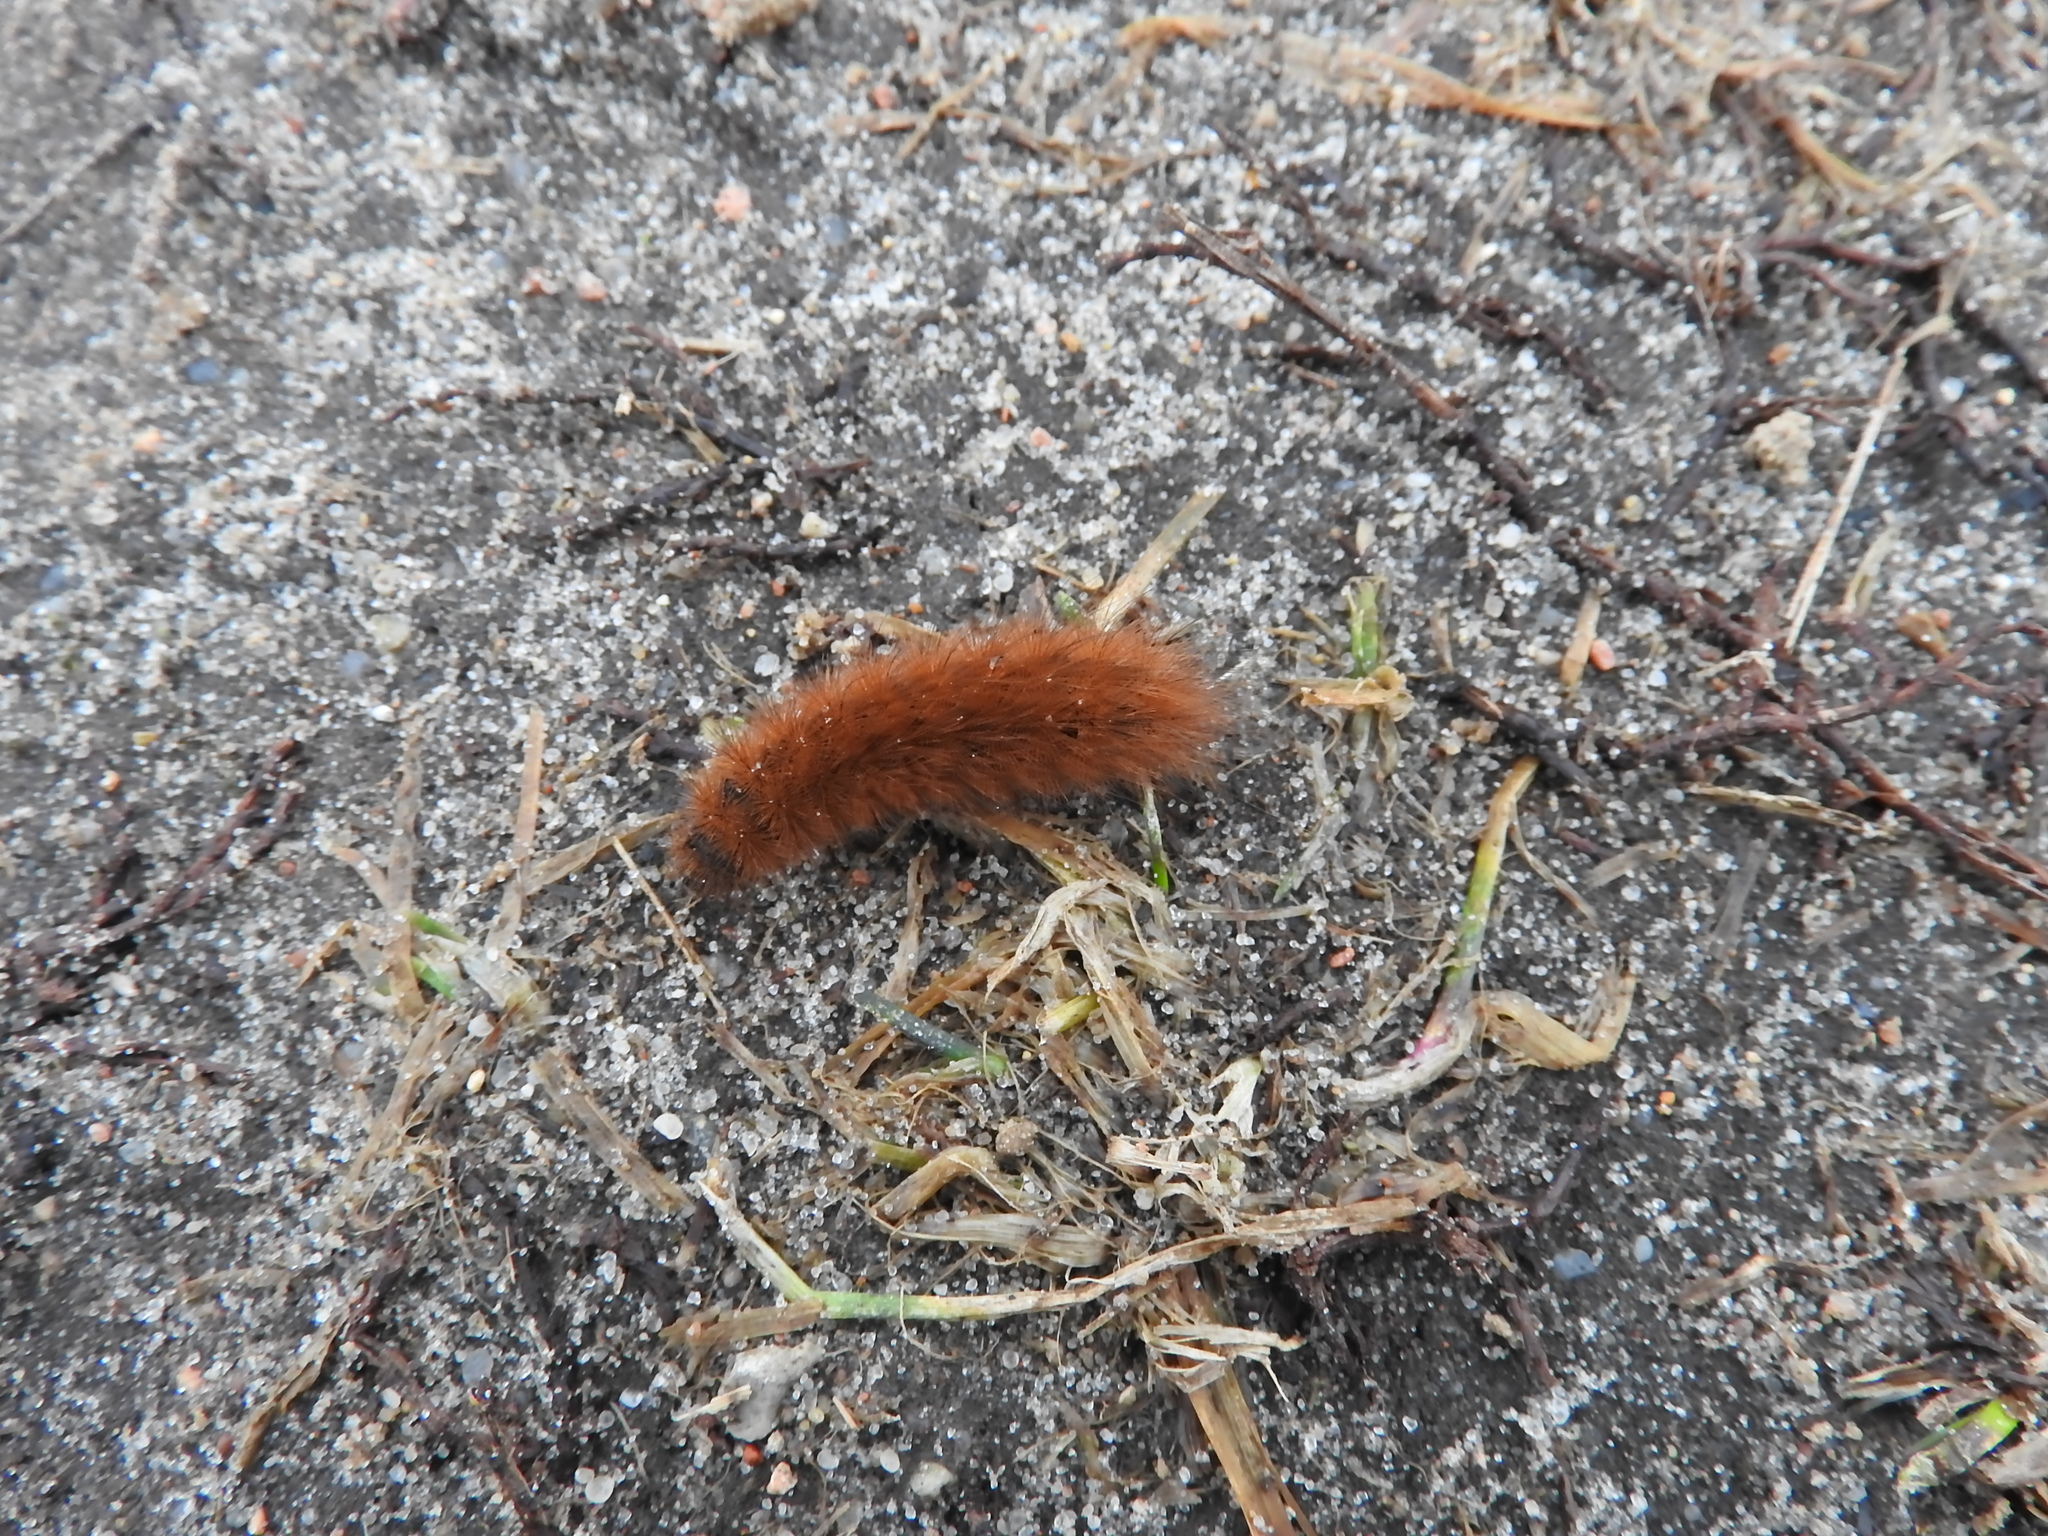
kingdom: Animalia
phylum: Arthropoda
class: Insecta
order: Lepidoptera
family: Erebidae
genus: Pericallia
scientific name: Pericallia matronula
